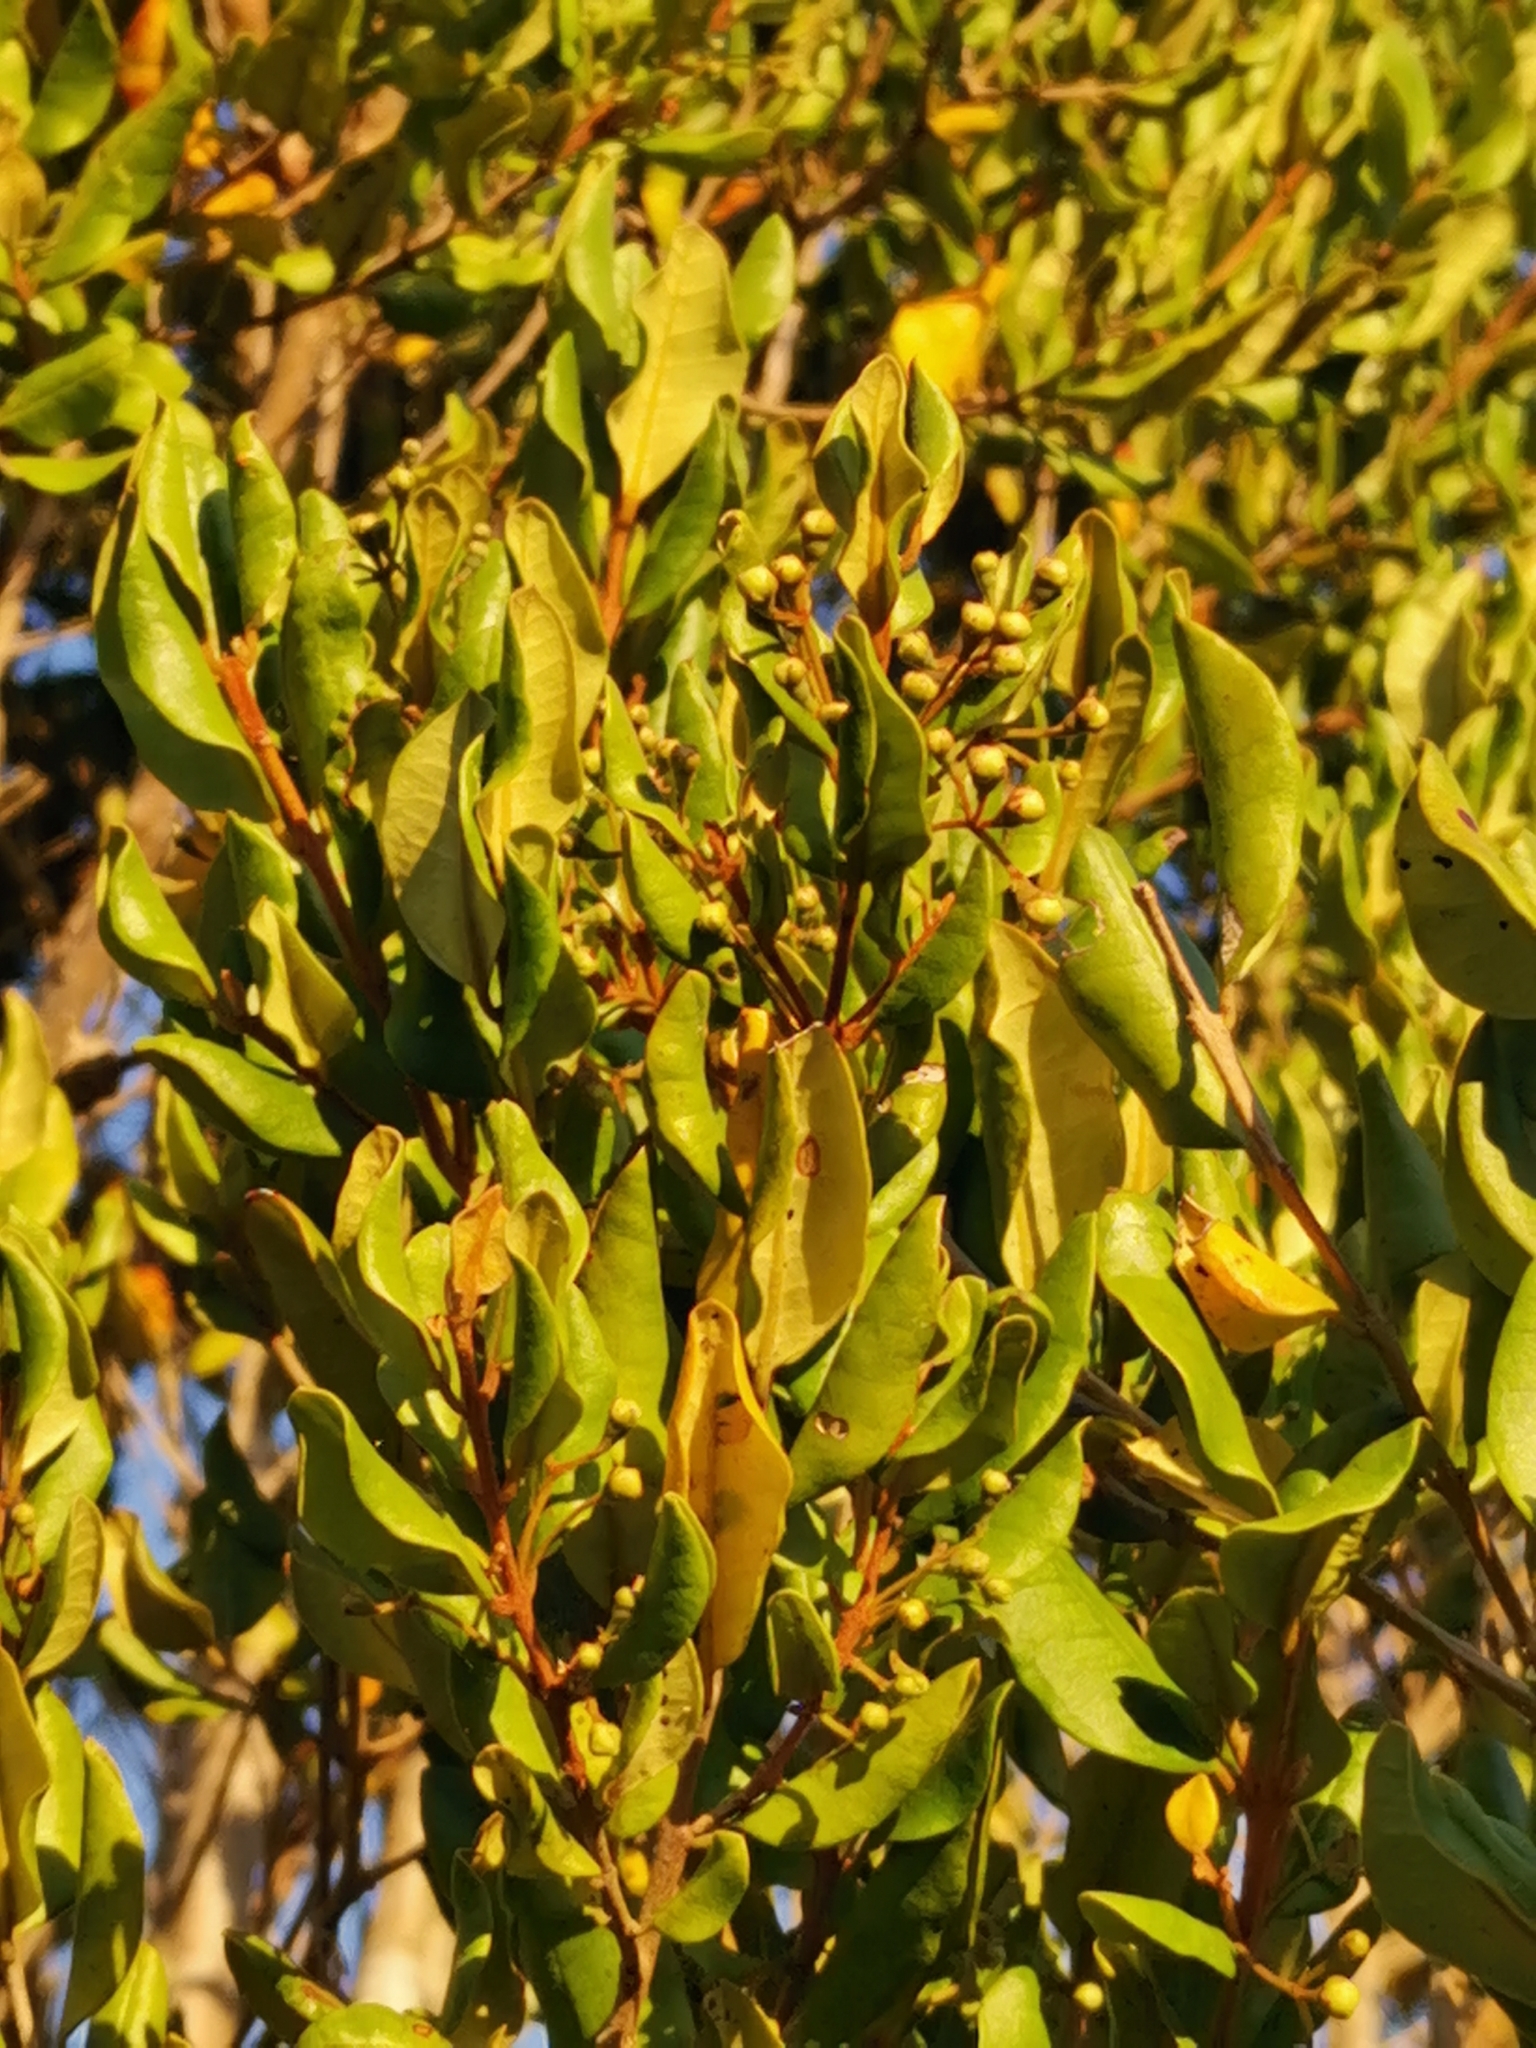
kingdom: Plantae
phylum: Tracheophyta
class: Magnoliopsida
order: Myrtales
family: Myrtaceae
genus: Myrceugenia
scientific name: Myrceugenia exsucca
